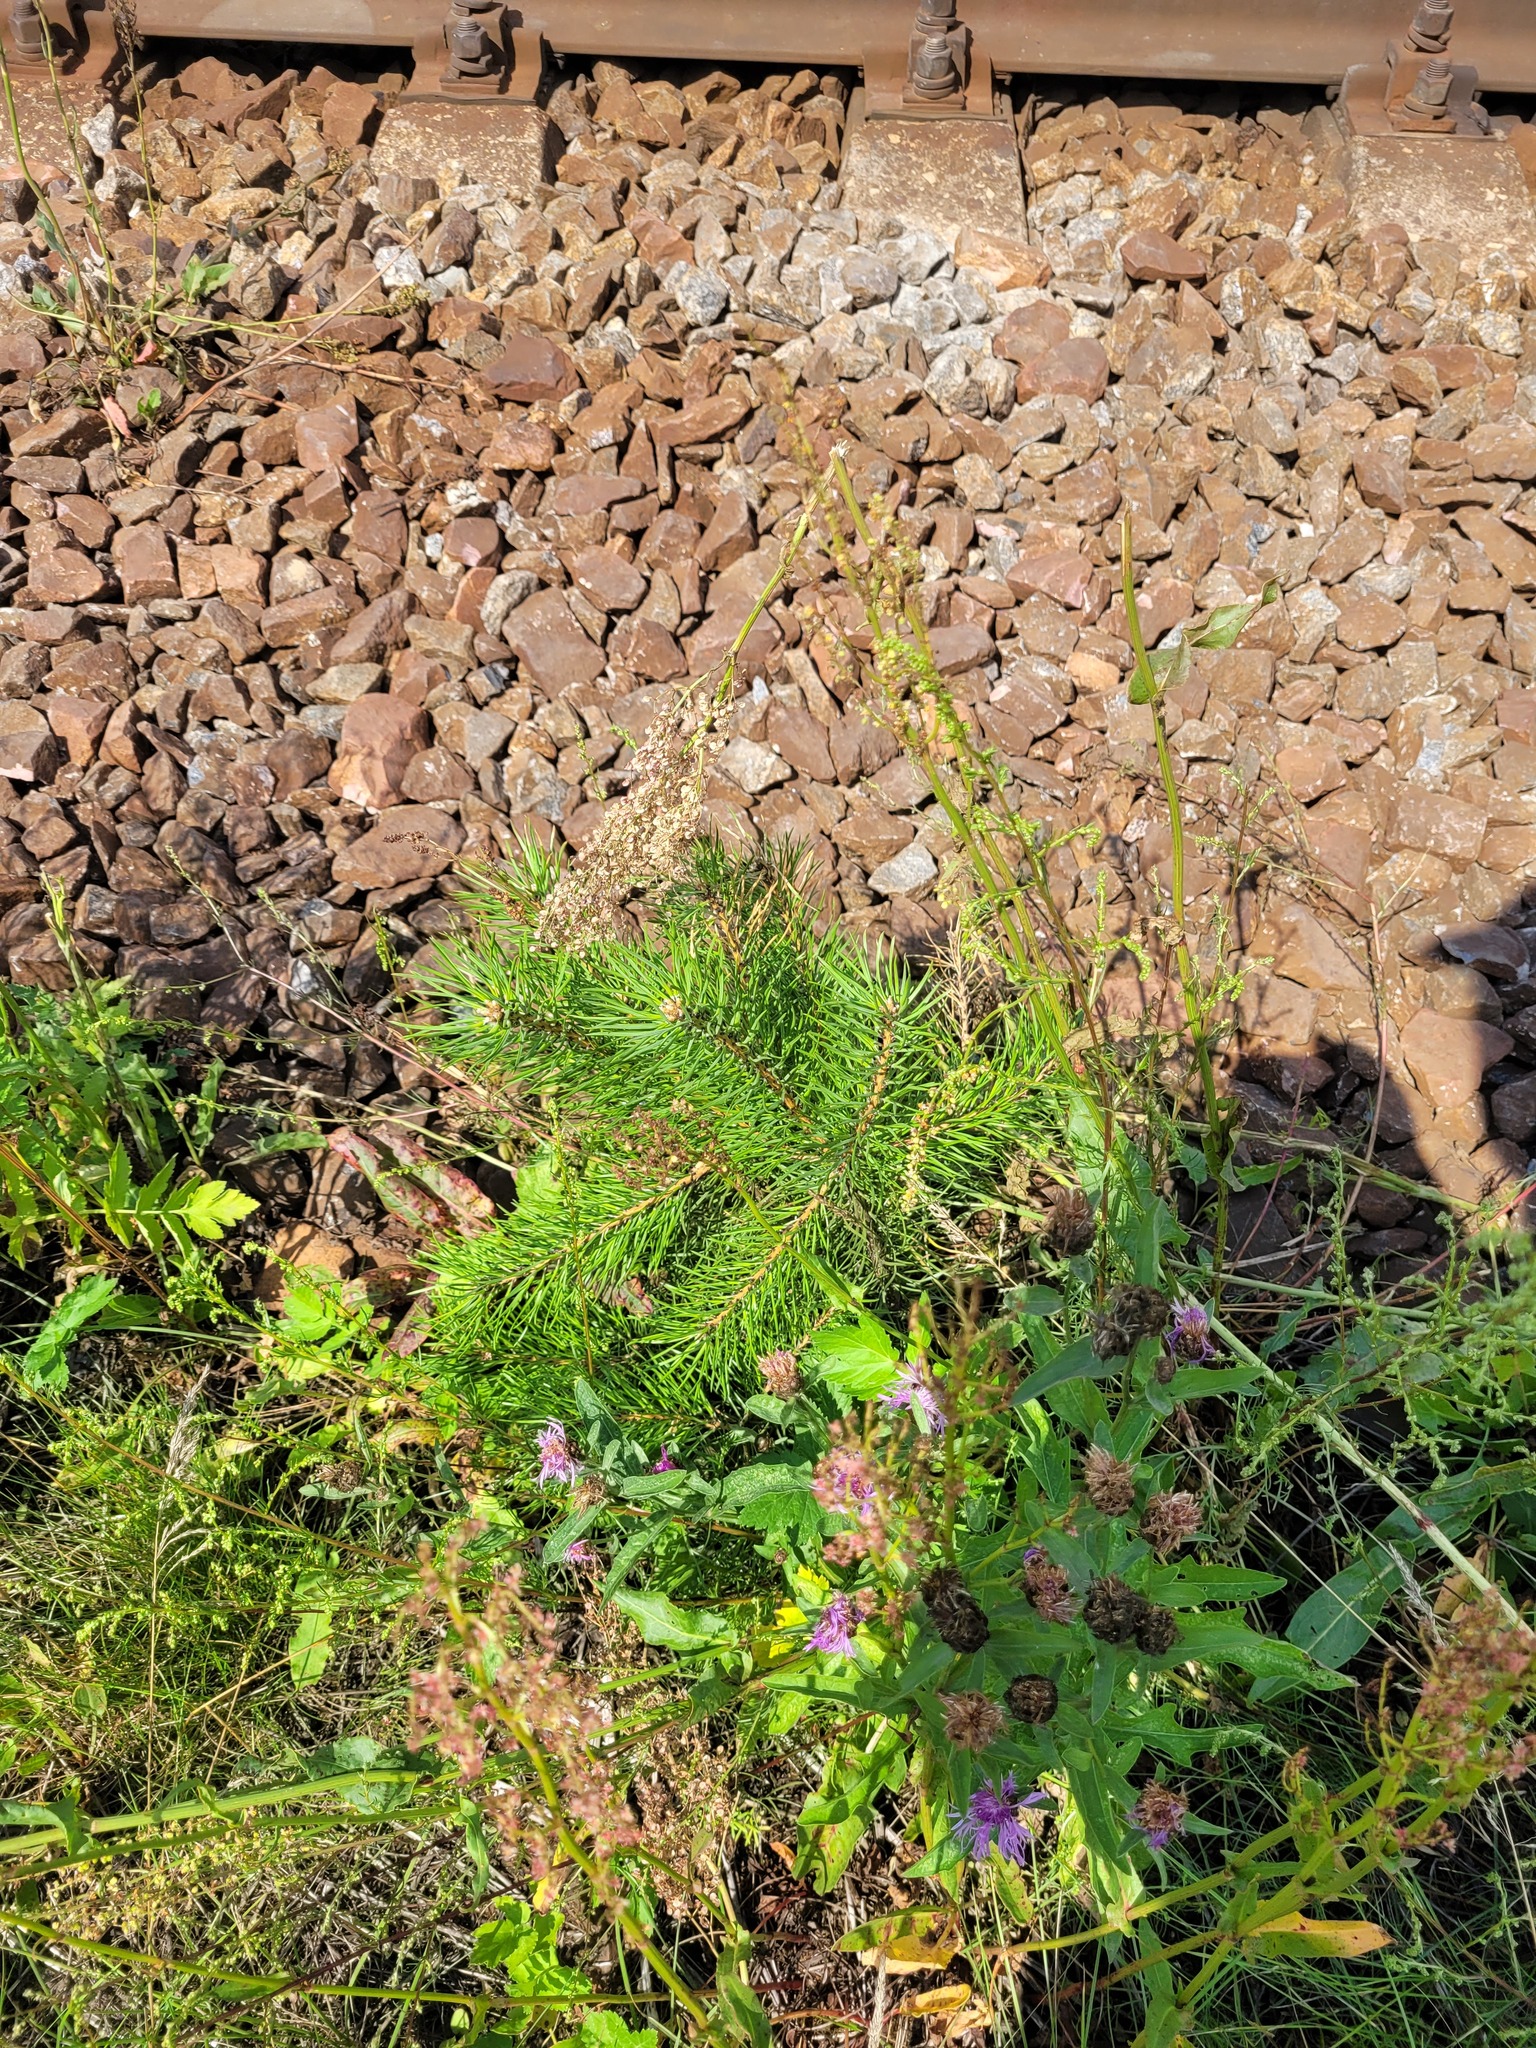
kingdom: Plantae
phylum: Tracheophyta
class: Pinopsida
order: Pinales
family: Pinaceae
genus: Pinus
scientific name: Pinus sylvestris
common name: Scots pine
